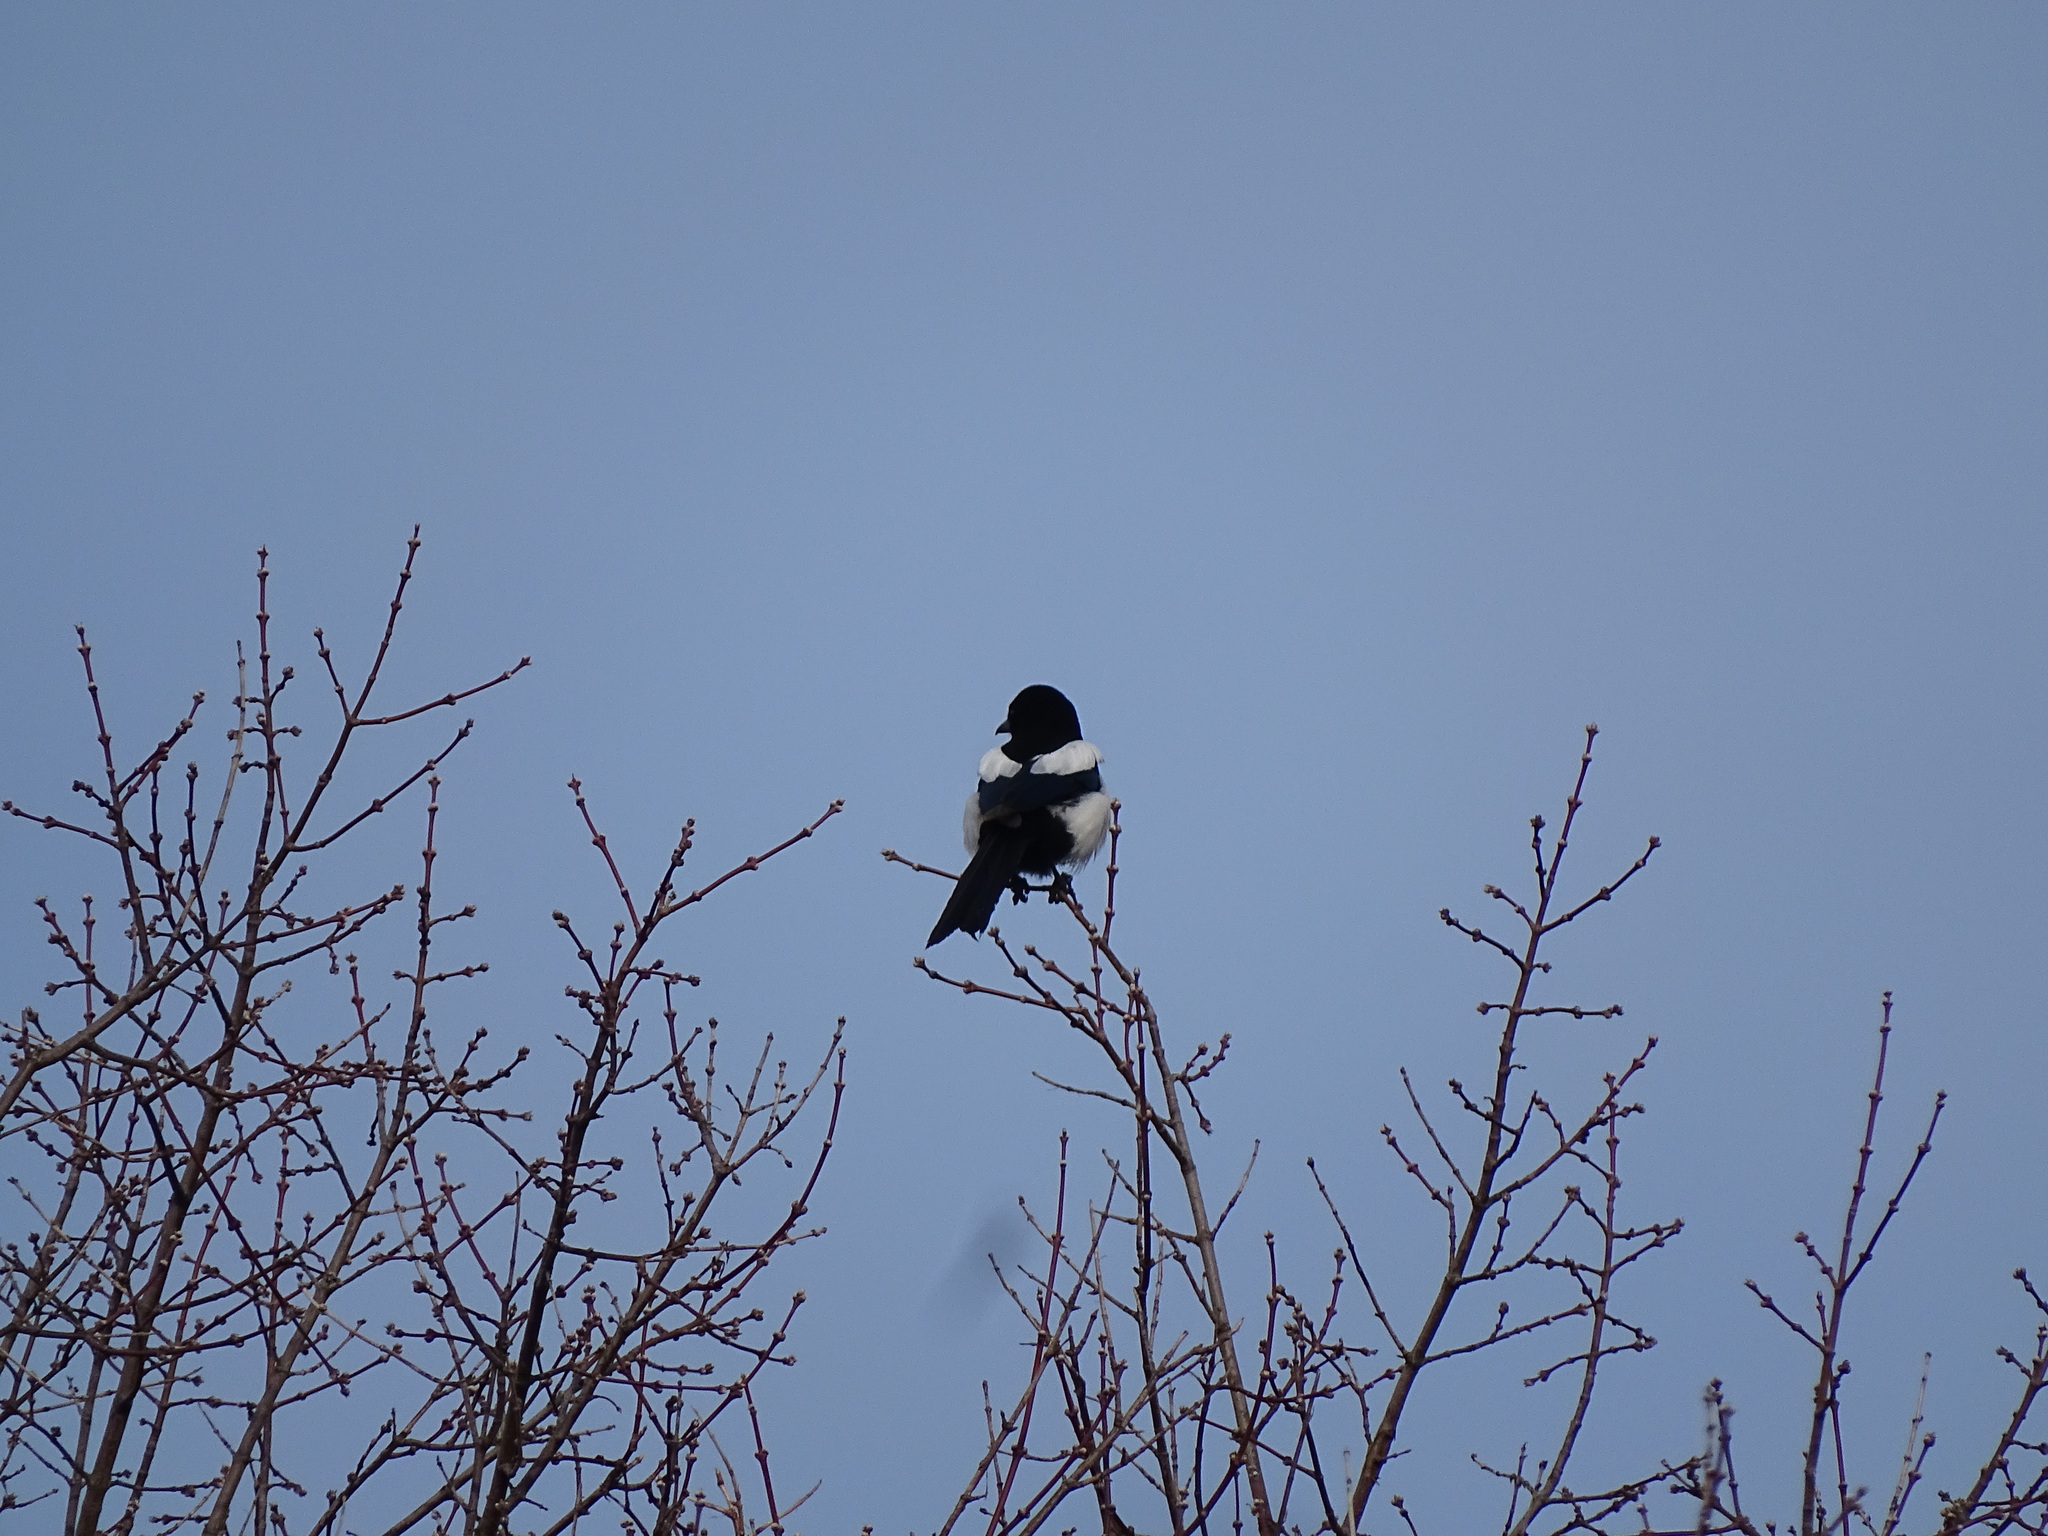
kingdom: Animalia
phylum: Chordata
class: Aves
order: Passeriformes
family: Corvidae
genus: Pica
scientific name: Pica pica
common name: Eurasian magpie
